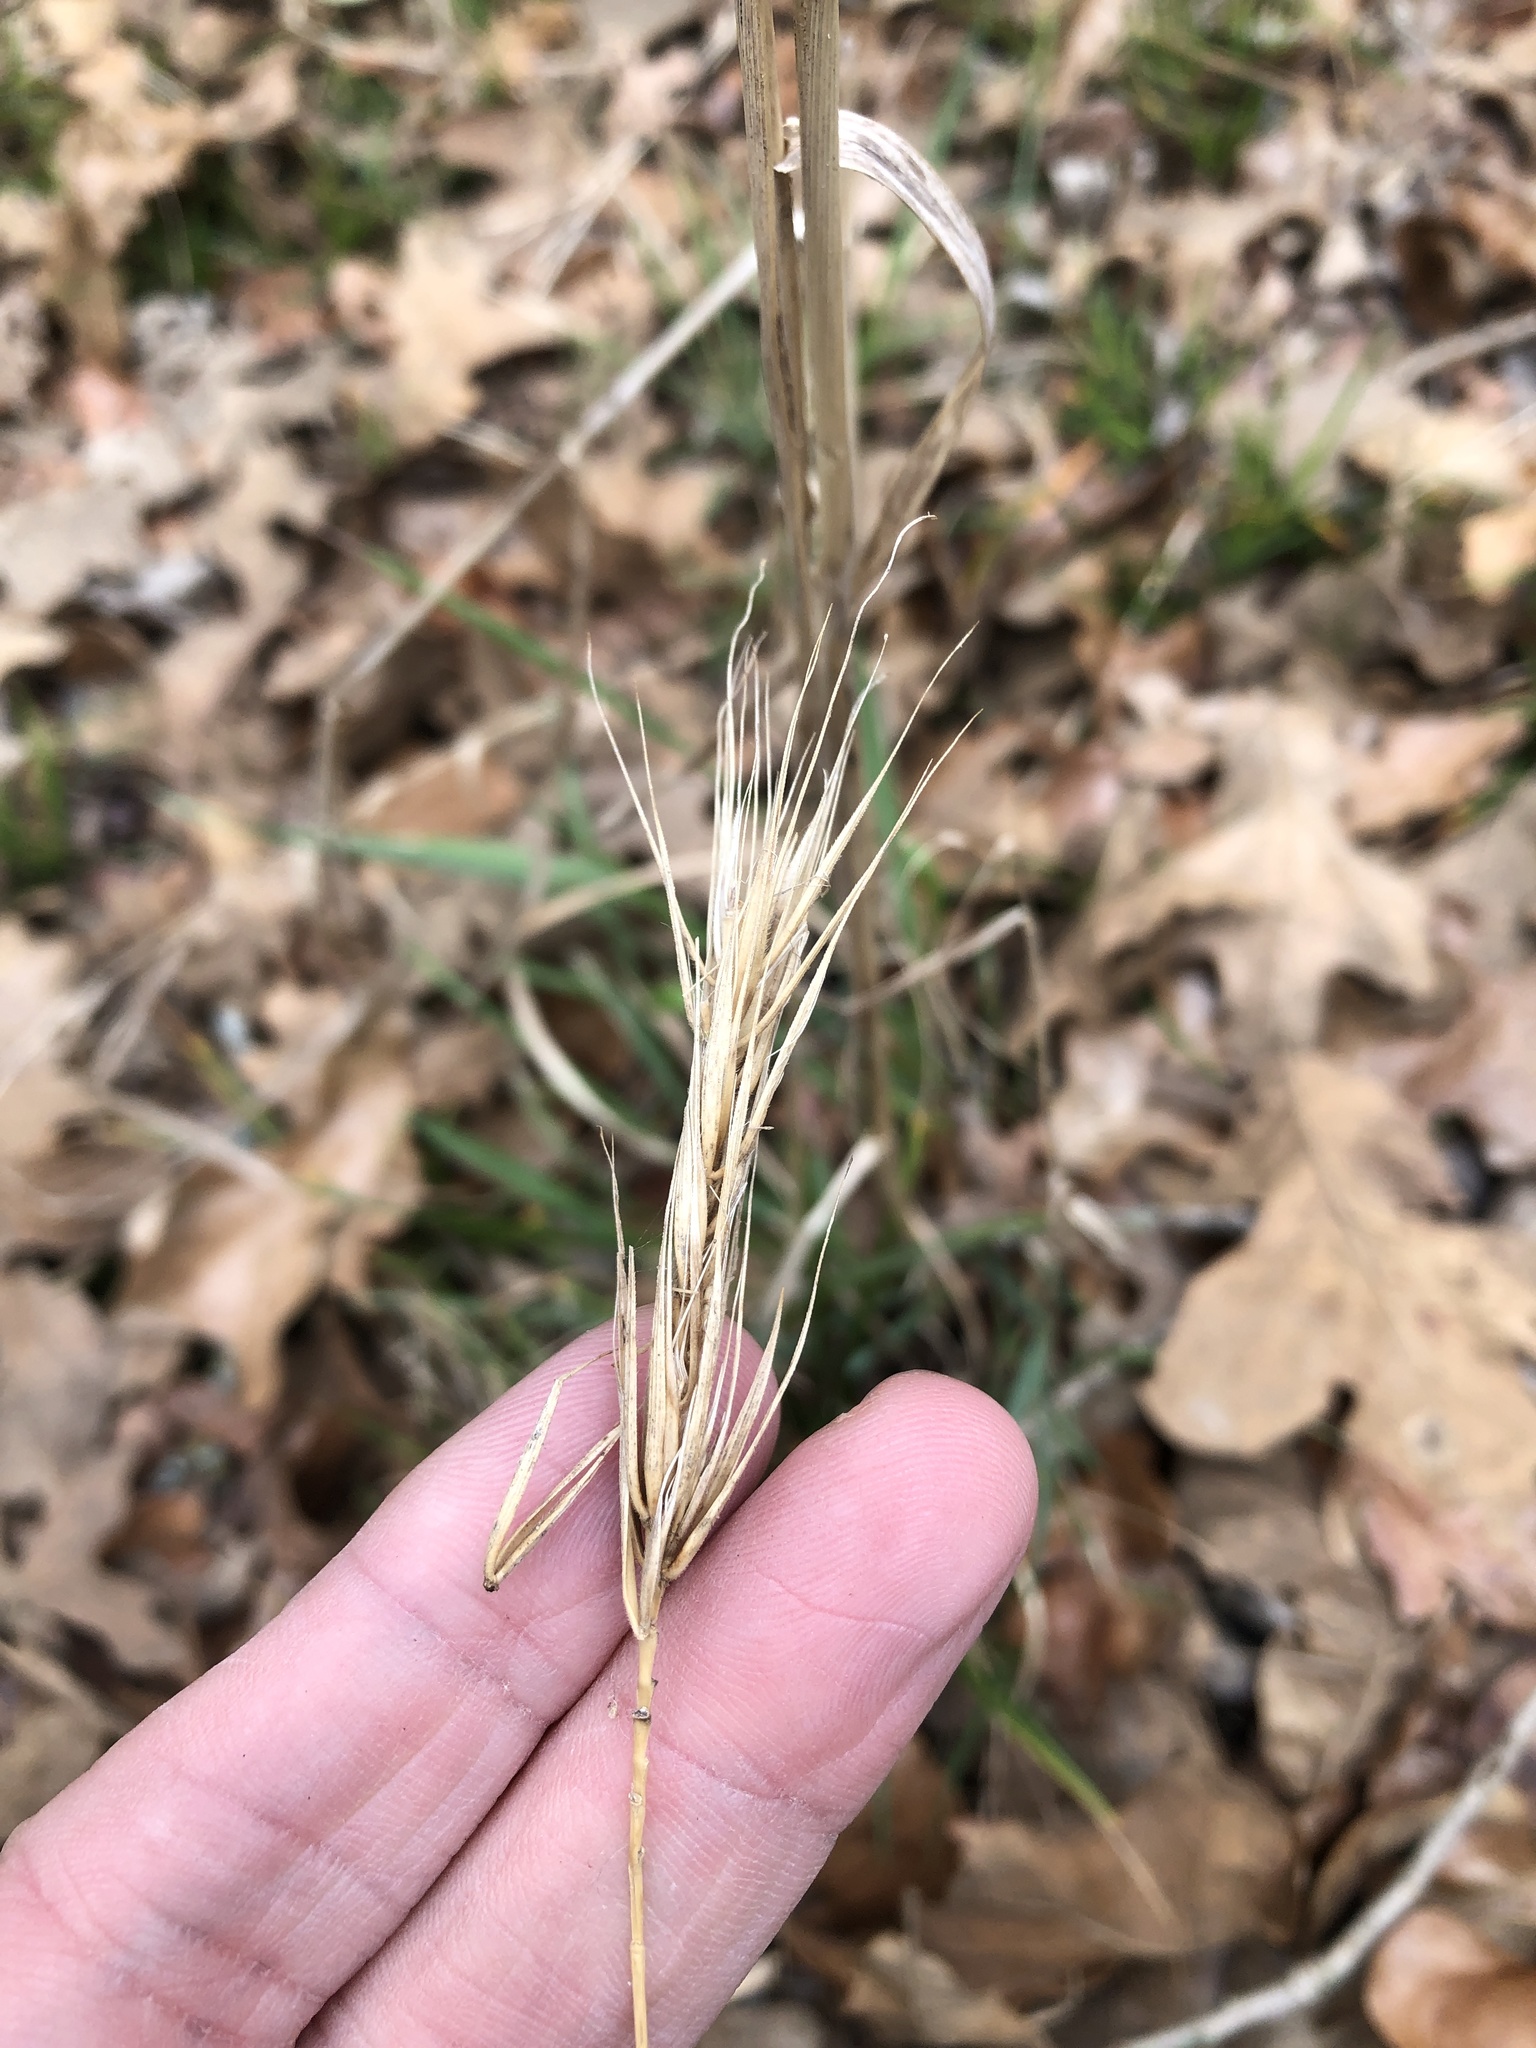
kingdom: Plantae
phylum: Tracheophyta
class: Liliopsida
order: Poales
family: Poaceae
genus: Elymus
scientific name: Elymus virginicus
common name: Common eastern wildrye
